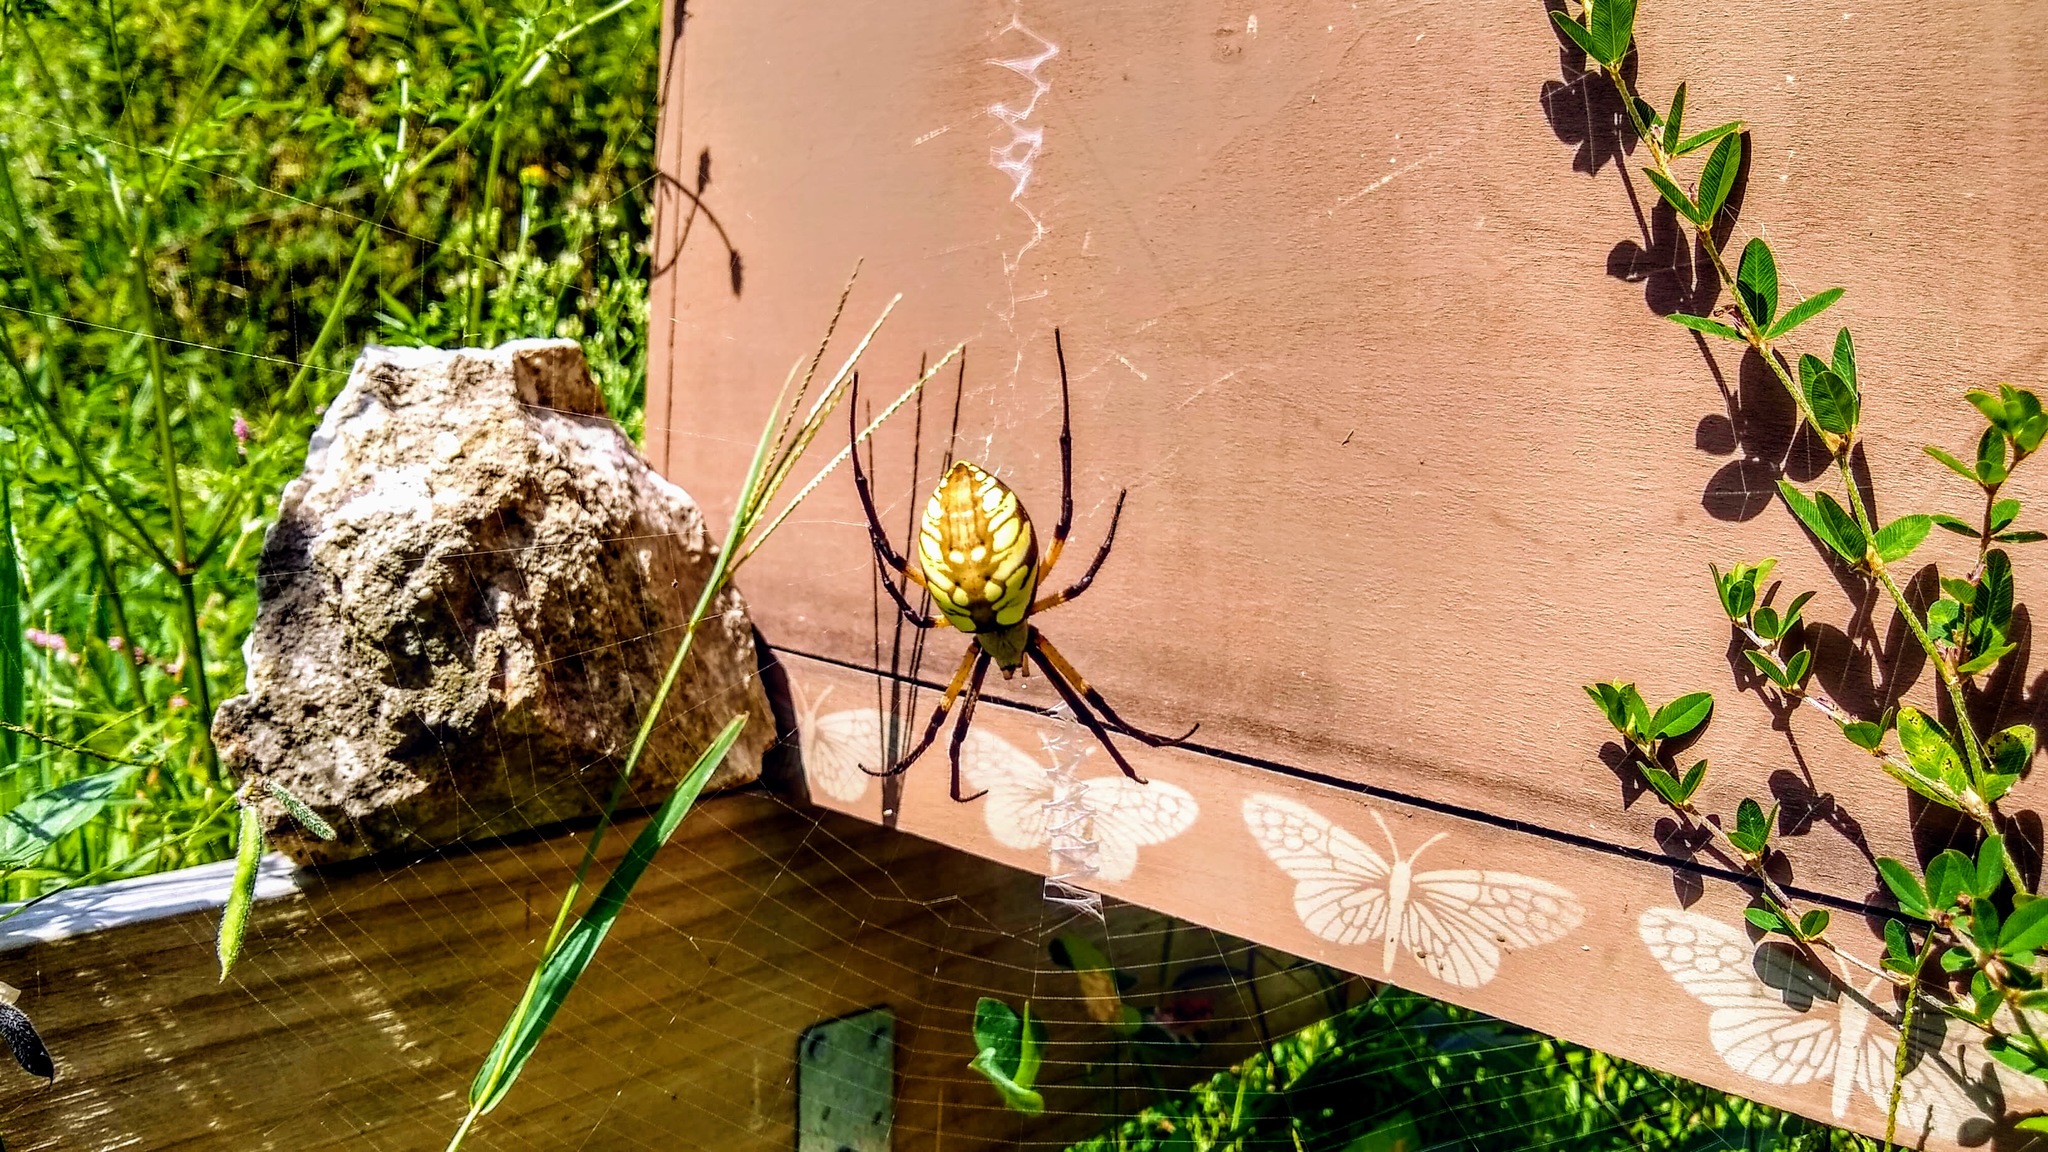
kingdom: Animalia
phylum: Arthropoda
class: Arachnida
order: Araneae
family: Araneidae
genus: Argiope
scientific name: Argiope aurantia
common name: Orb weavers
